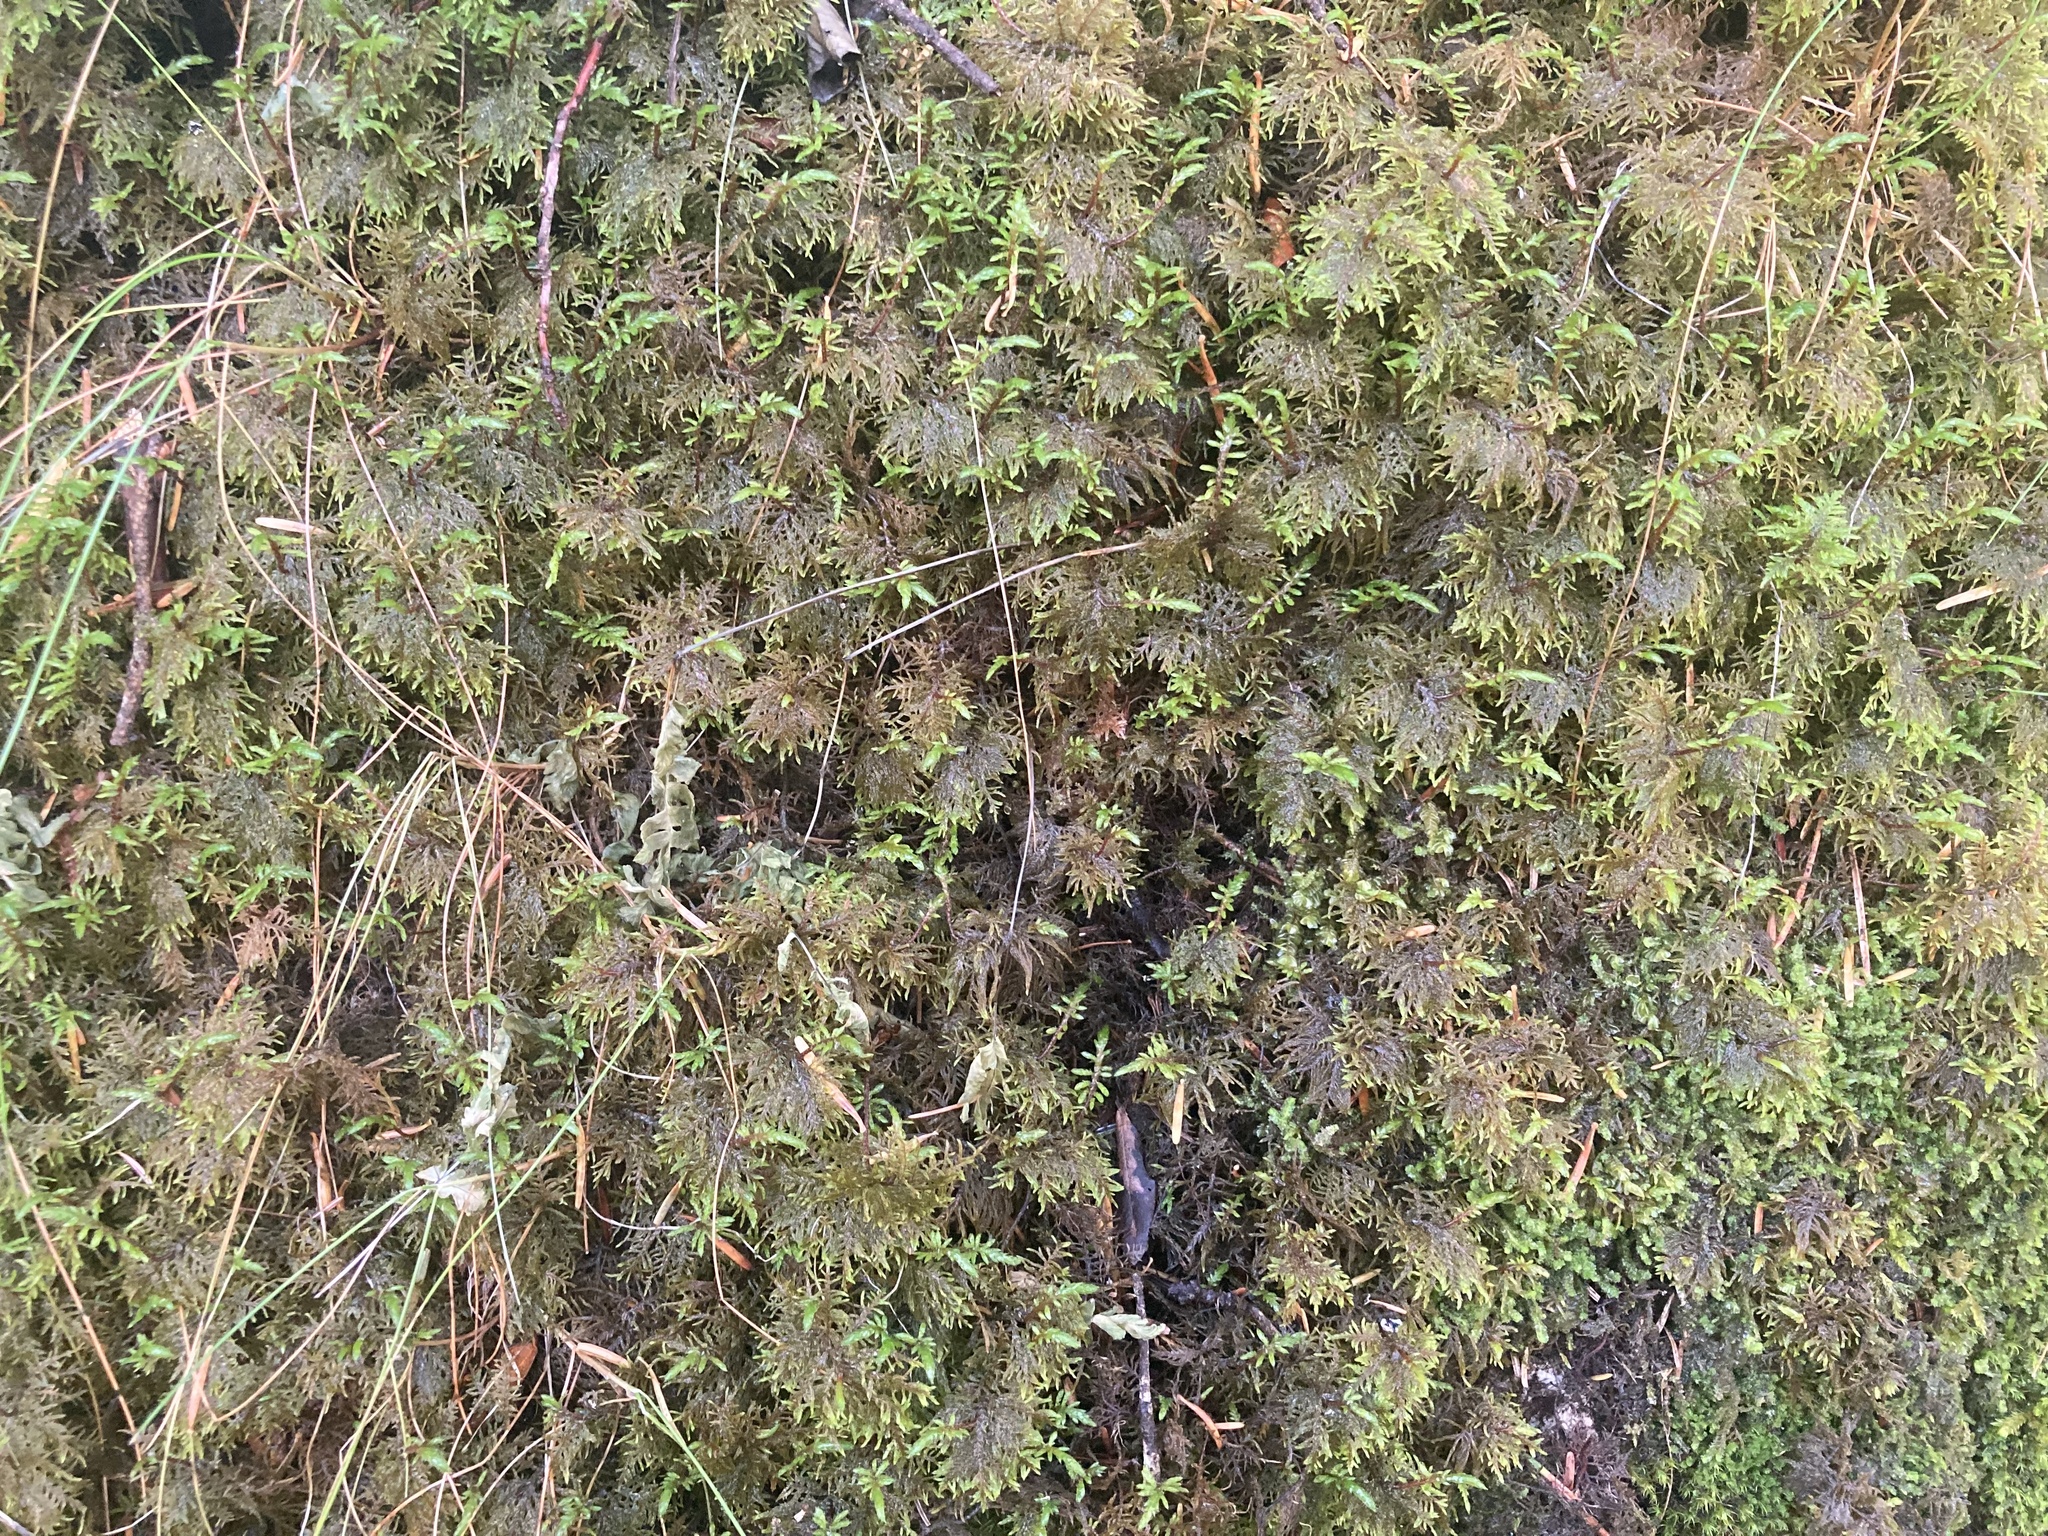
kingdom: Plantae
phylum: Bryophyta
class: Bryopsida
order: Hypnales
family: Hylocomiaceae
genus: Hylocomium
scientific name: Hylocomium splendens
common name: Stairstep moss
